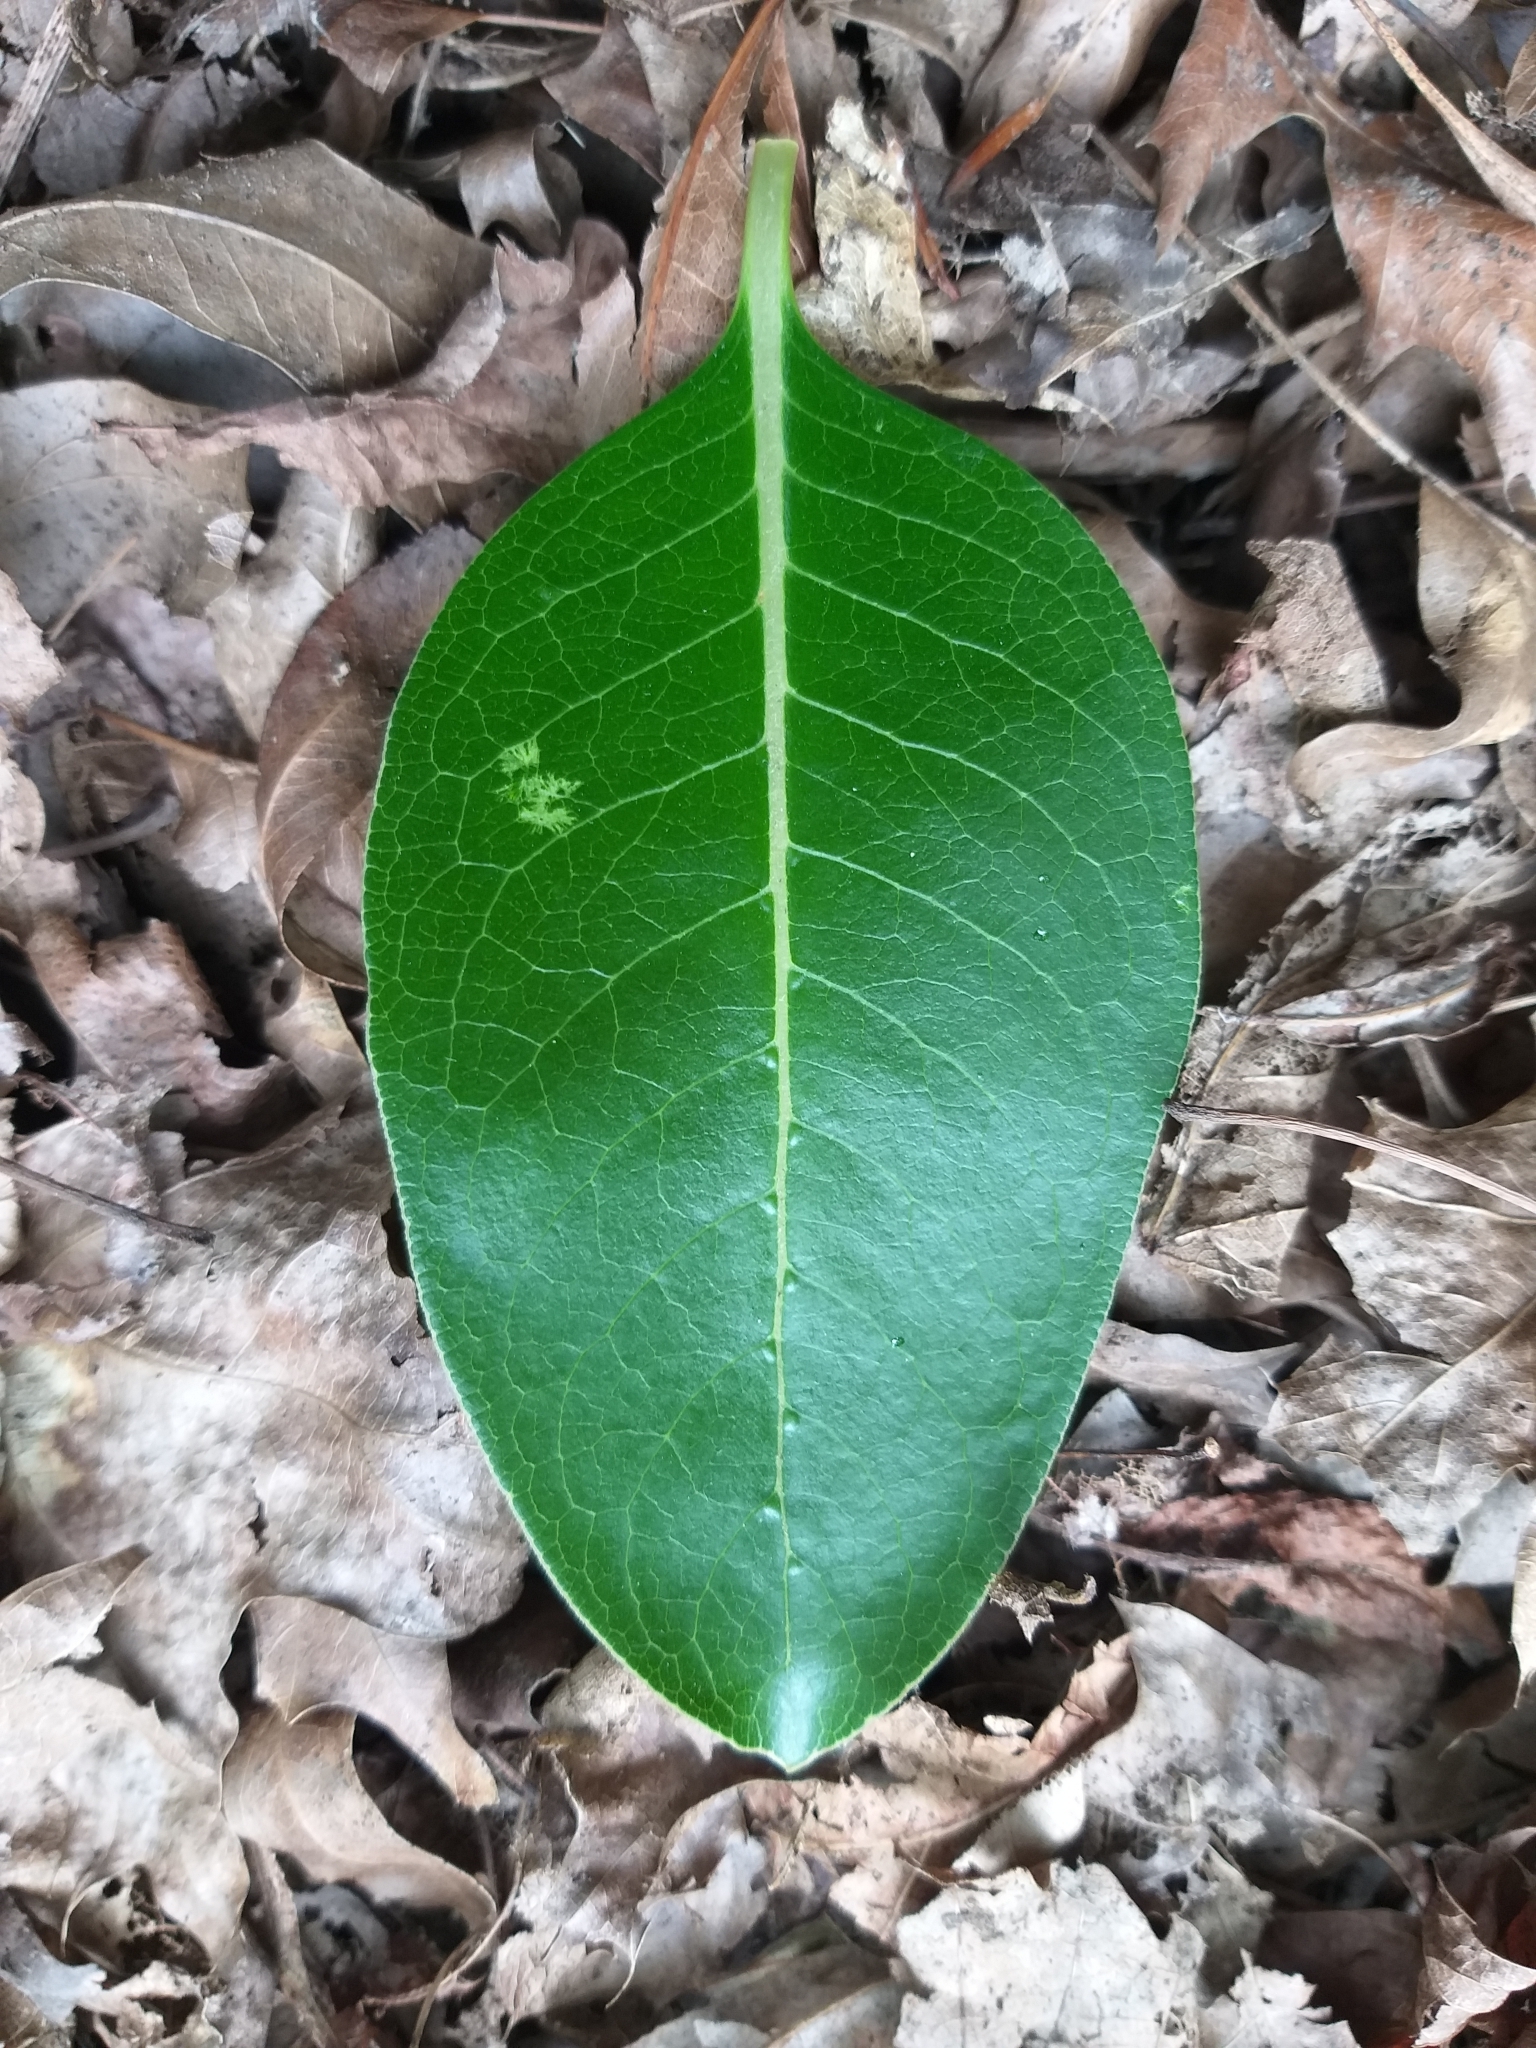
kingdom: Plantae
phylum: Tracheophyta
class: Magnoliopsida
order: Gentianales
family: Rubiaceae
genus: Coprosma
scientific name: Coprosma robusta
